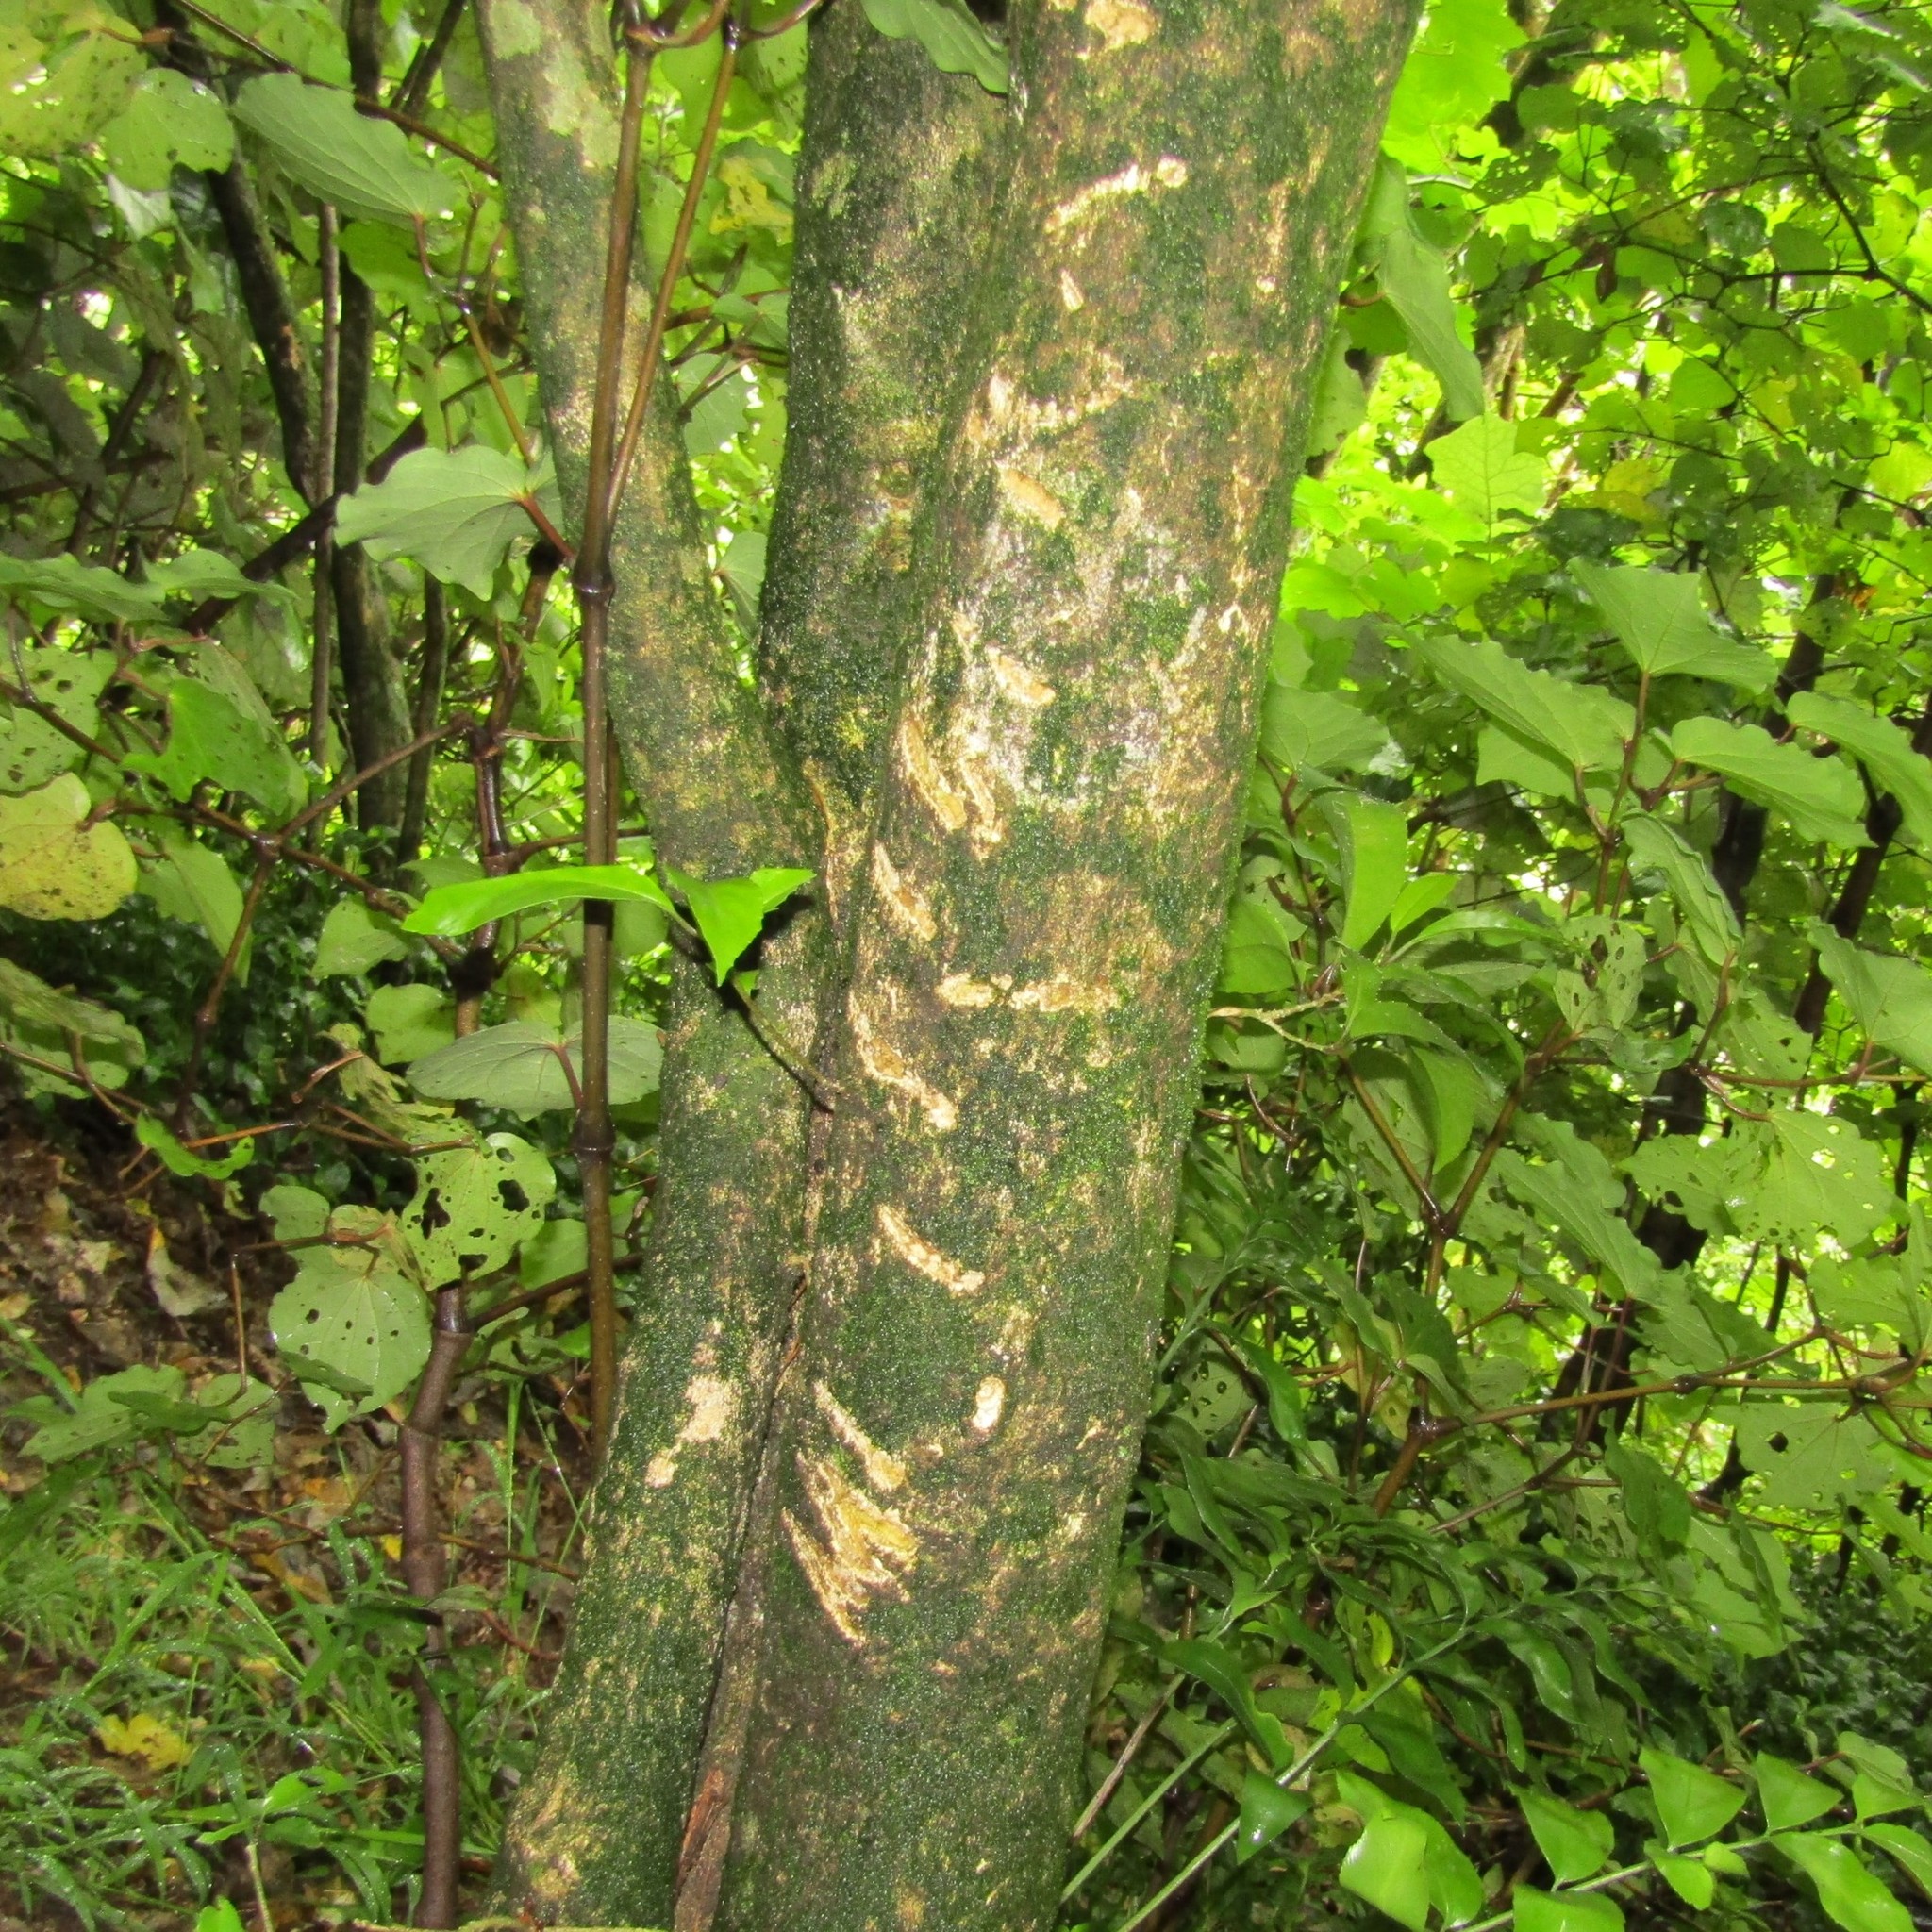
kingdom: Animalia
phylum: Chordata
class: Mammalia
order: Diprotodontia
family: Phalangeridae
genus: Trichosurus
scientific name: Trichosurus vulpecula
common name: Common brushtail
